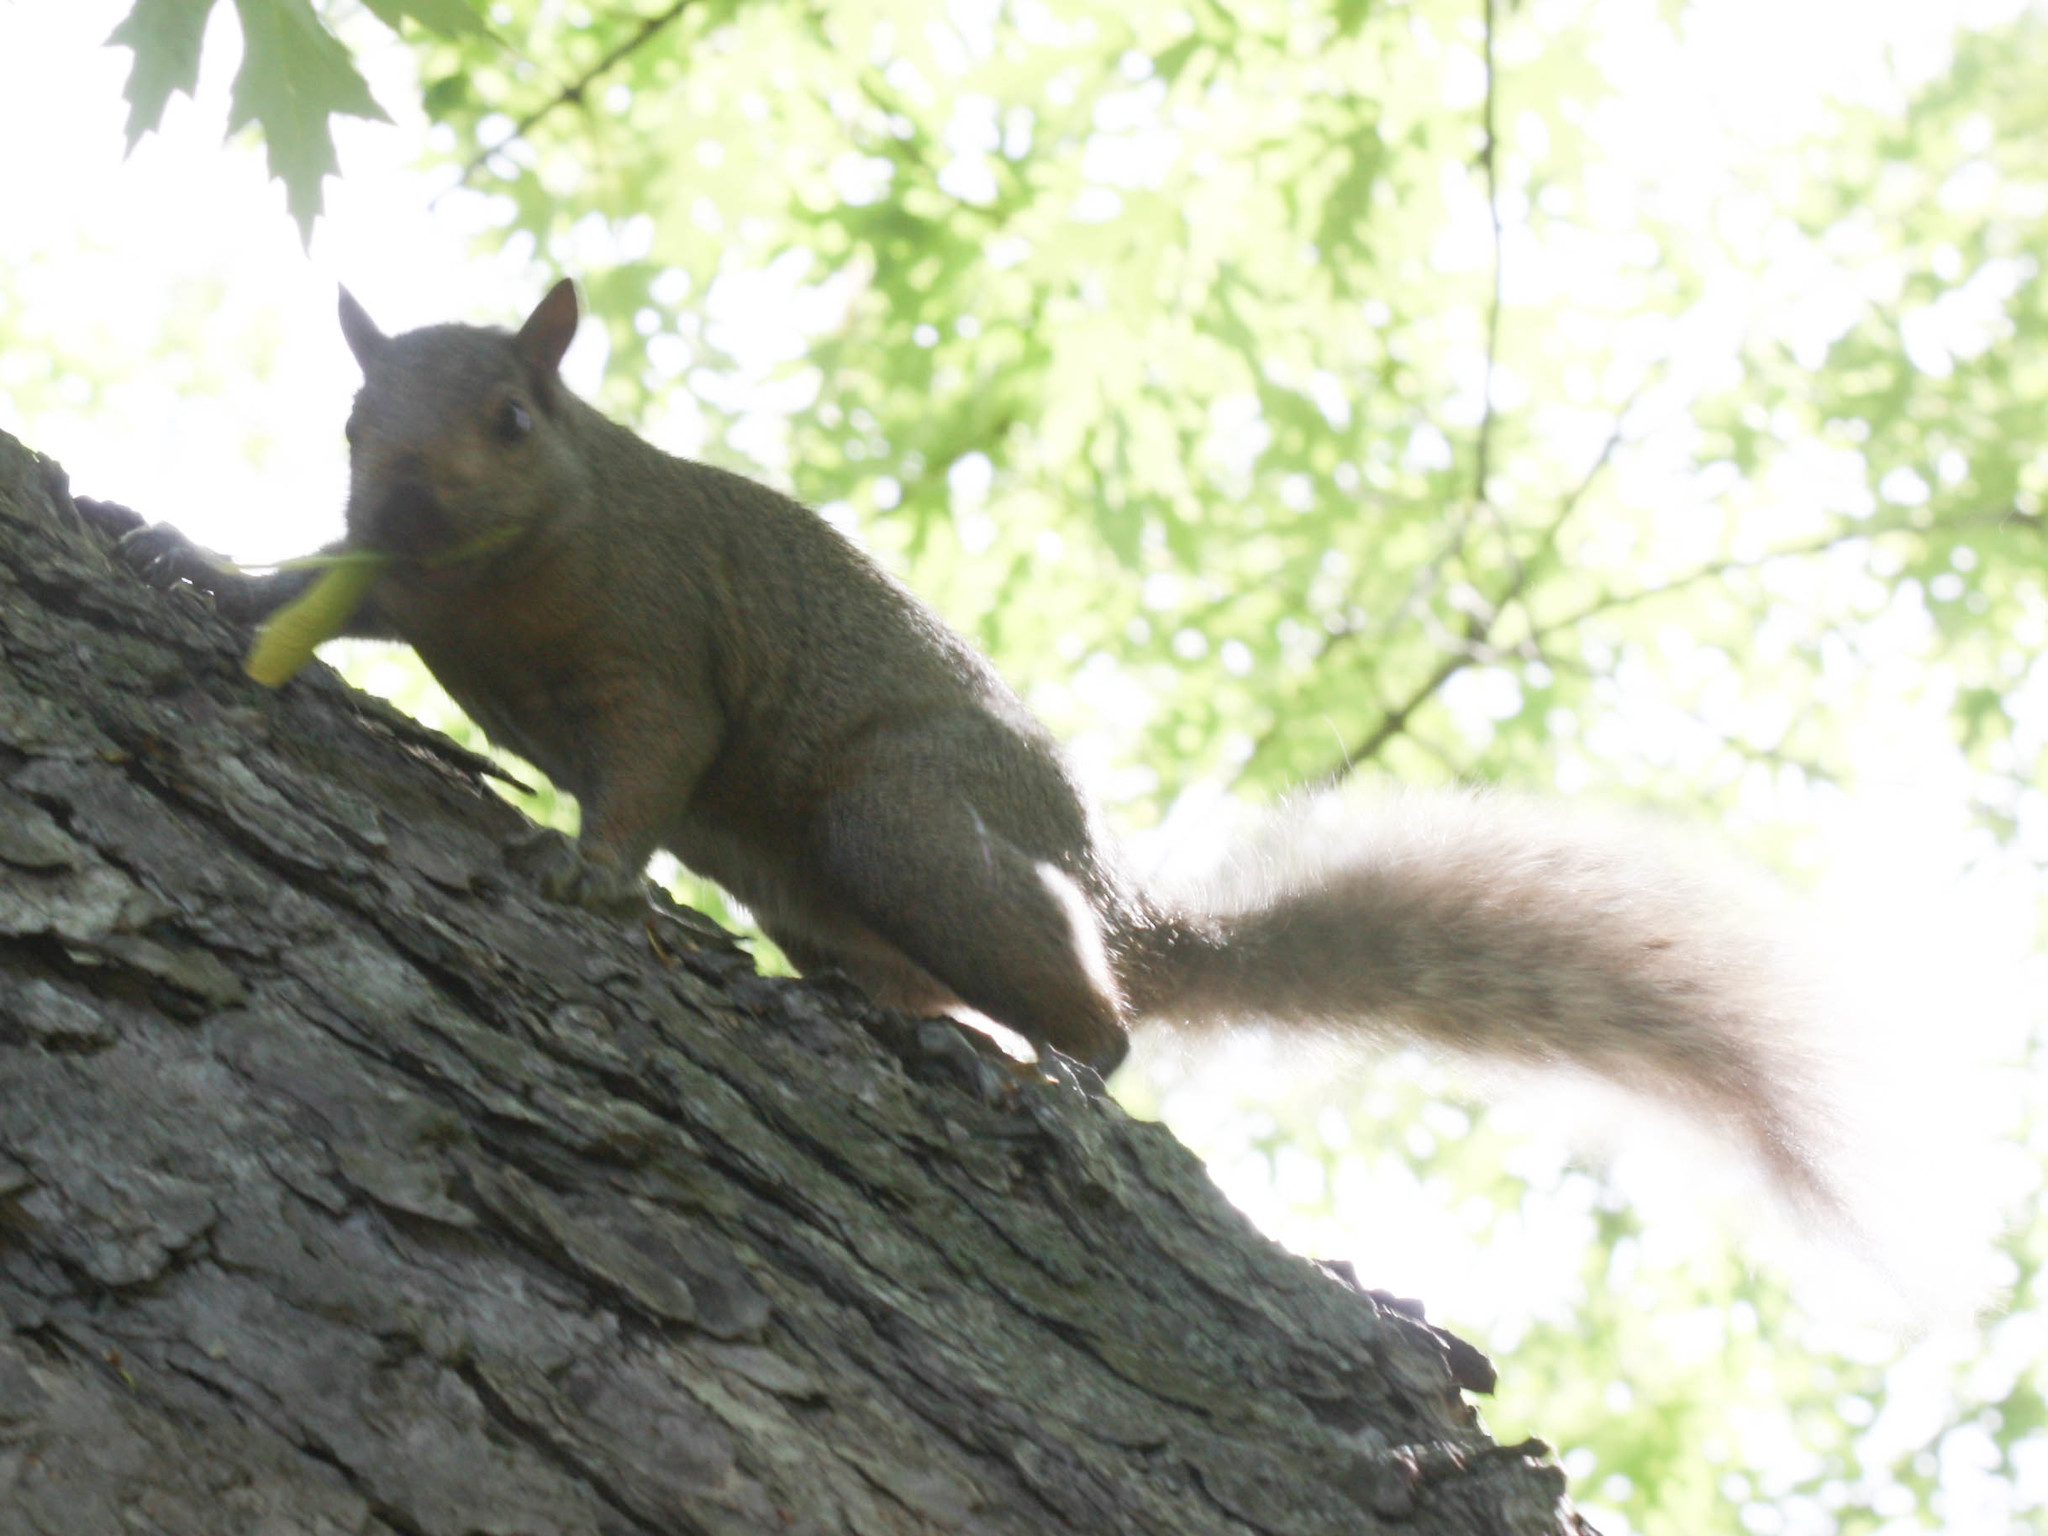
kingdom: Animalia
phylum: Chordata
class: Mammalia
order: Rodentia
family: Sciuridae
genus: Sciurus
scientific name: Sciurus carolinensis
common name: Eastern gray squirrel
